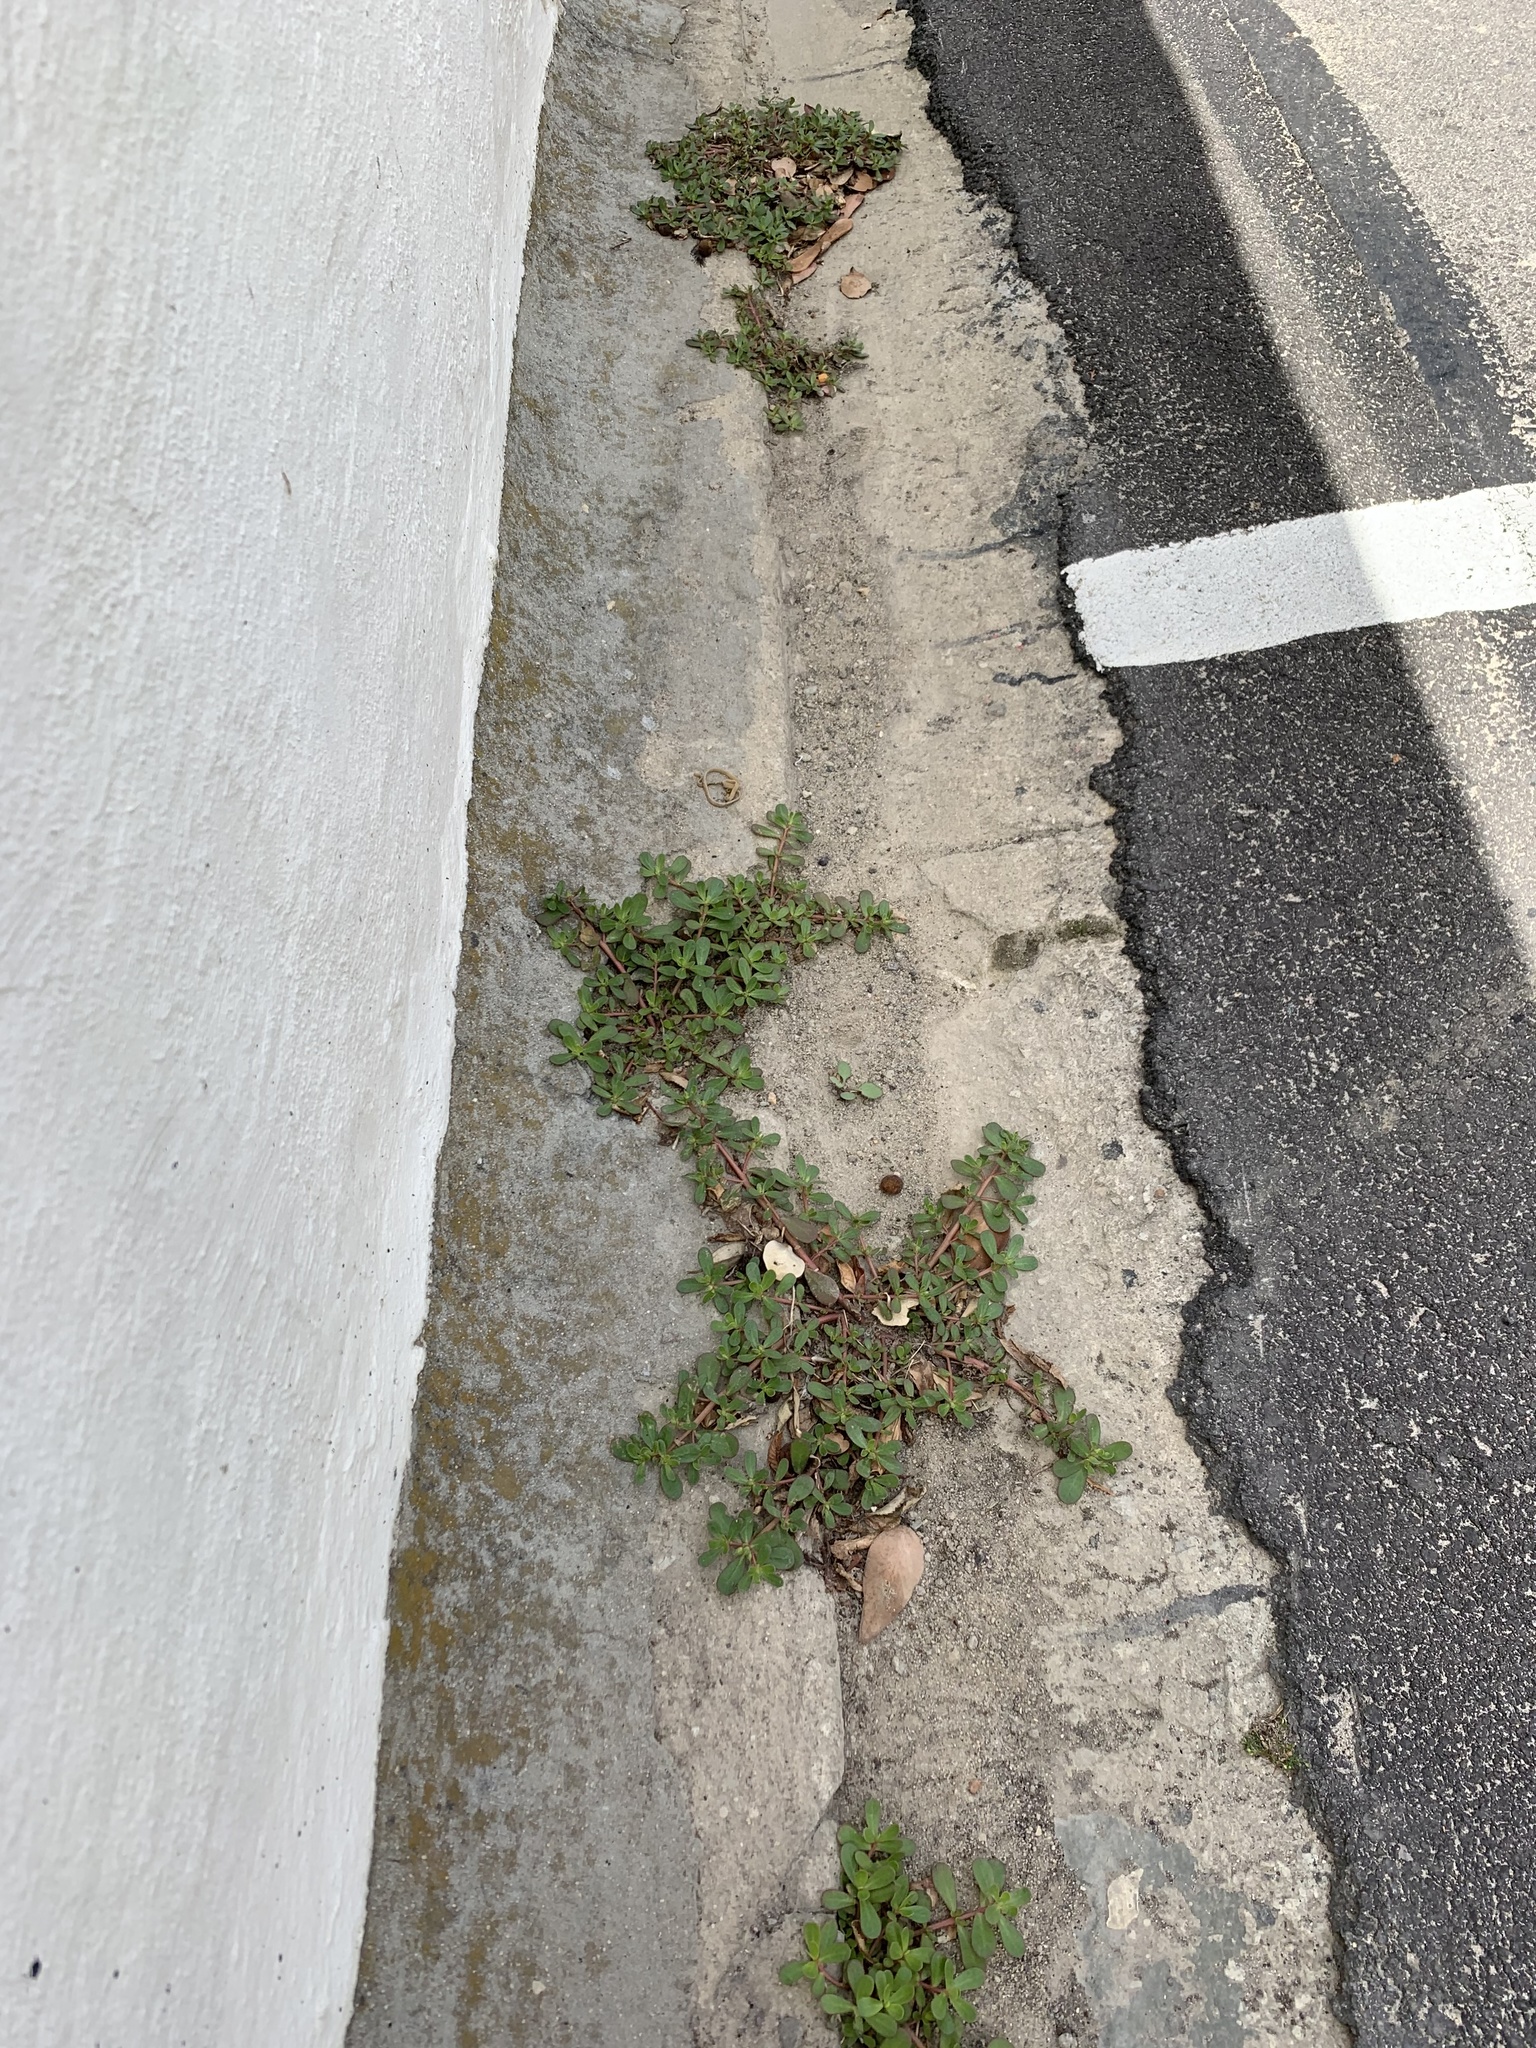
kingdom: Plantae
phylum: Tracheophyta
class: Magnoliopsida
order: Caryophyllales
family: Portulacaceae
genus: Portulaca
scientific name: Portulaca oleracea
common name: Common purslane
